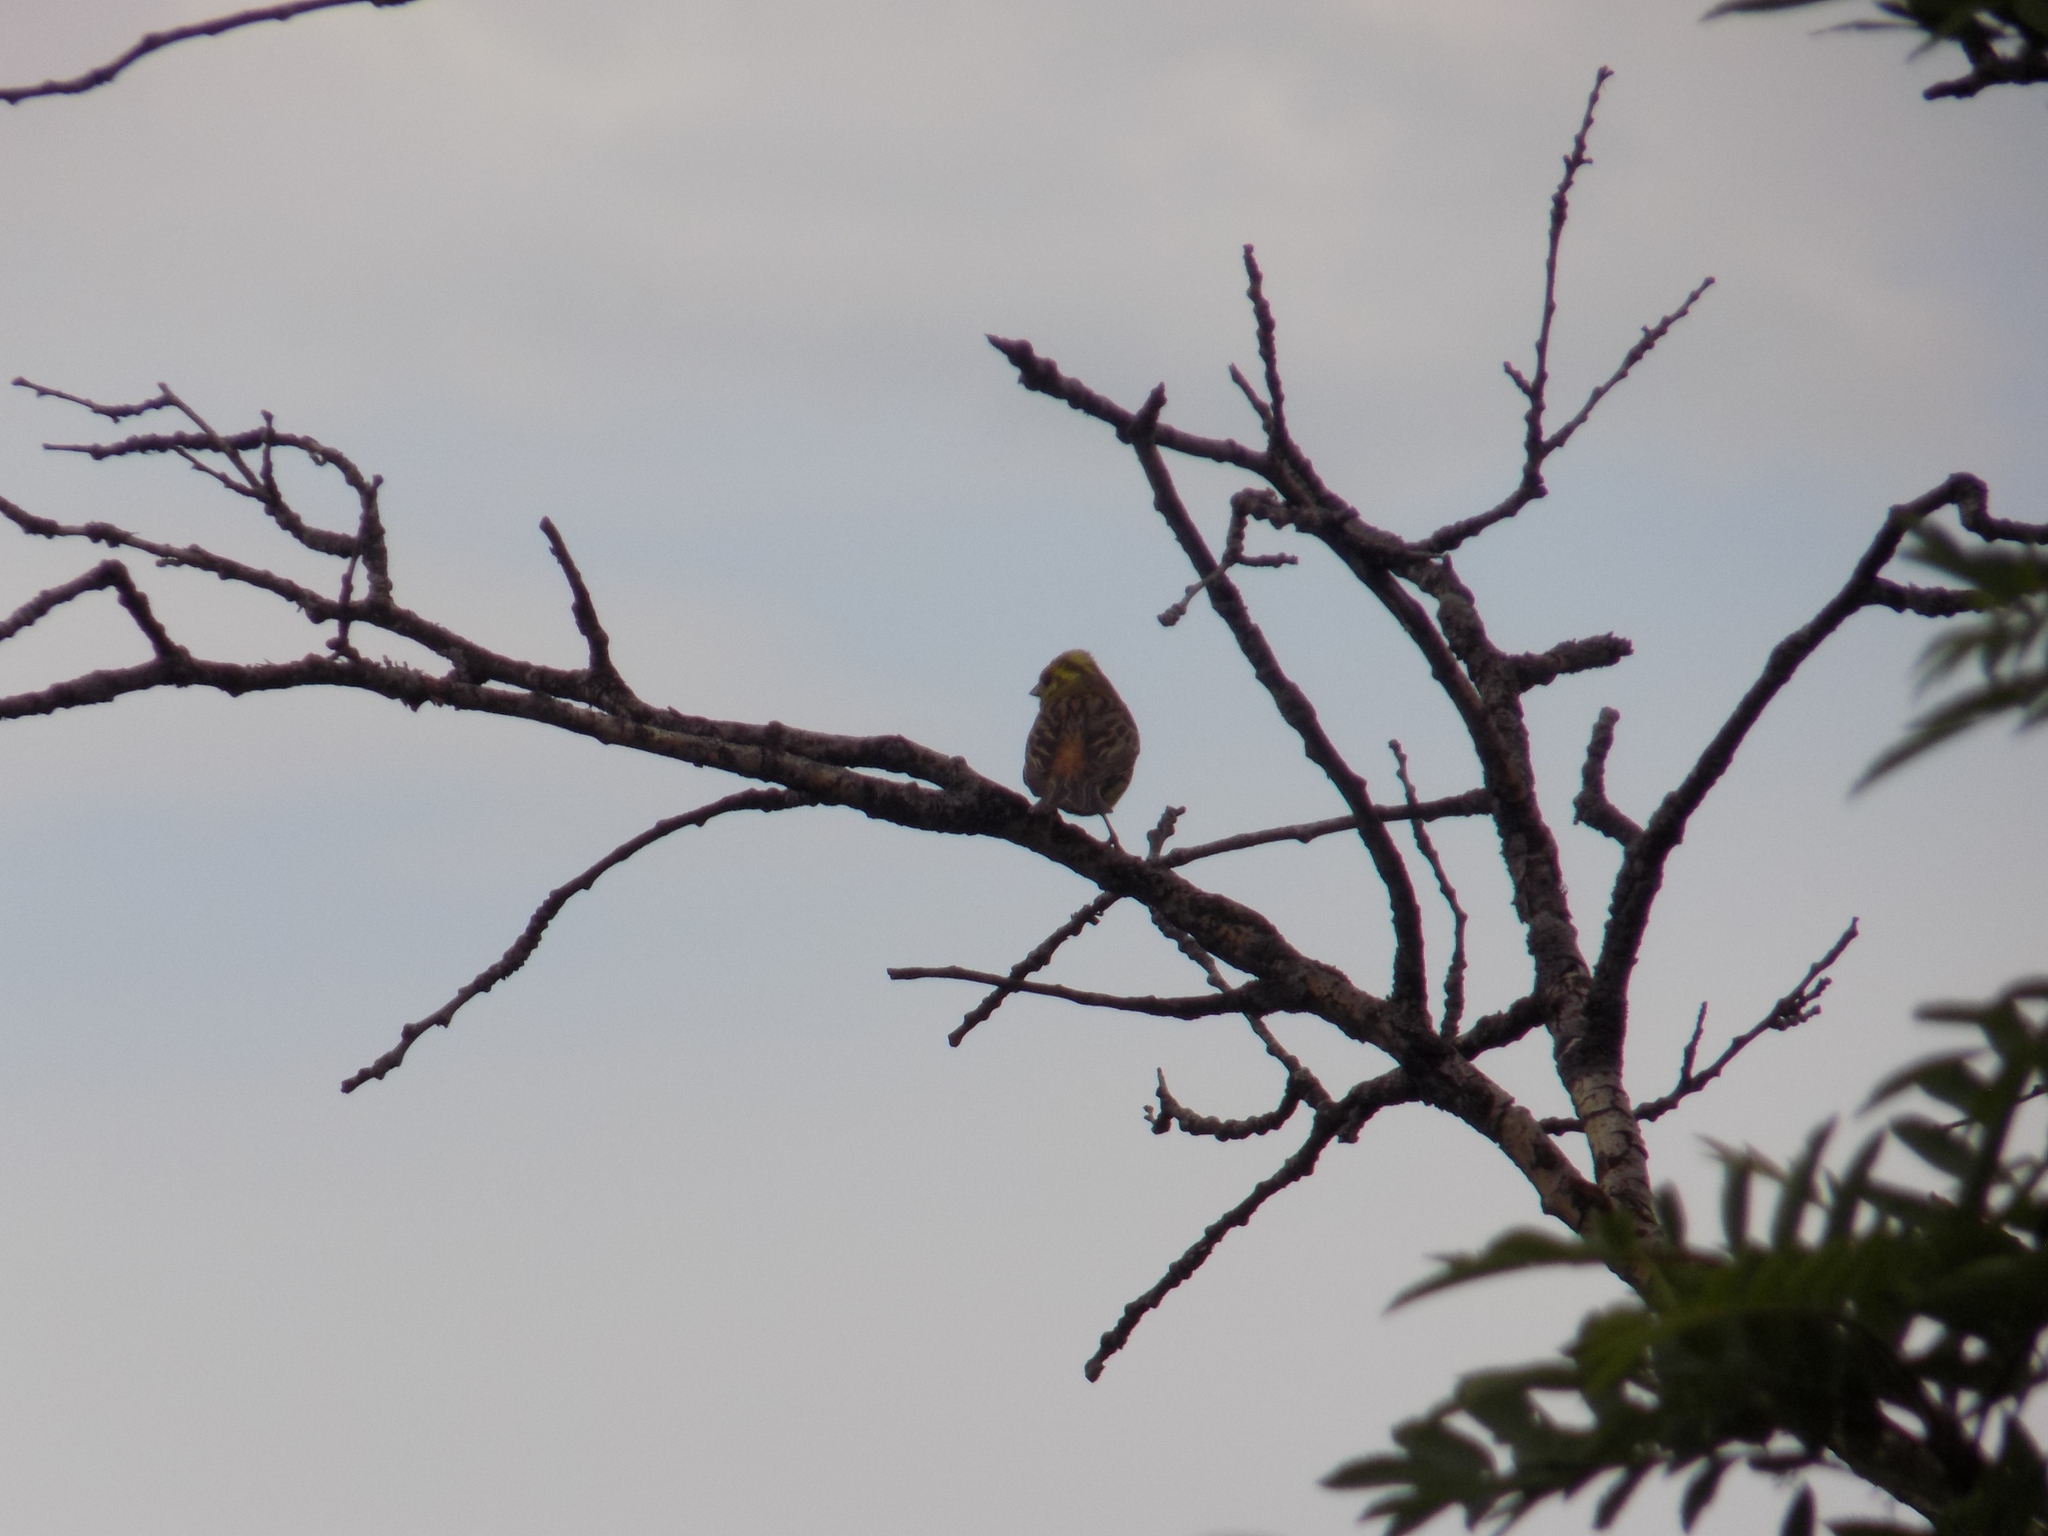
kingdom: Animalia
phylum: Chordata
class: Aves
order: Passeriformes
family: Emberizidae
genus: Emberiza
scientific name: Emberiza
